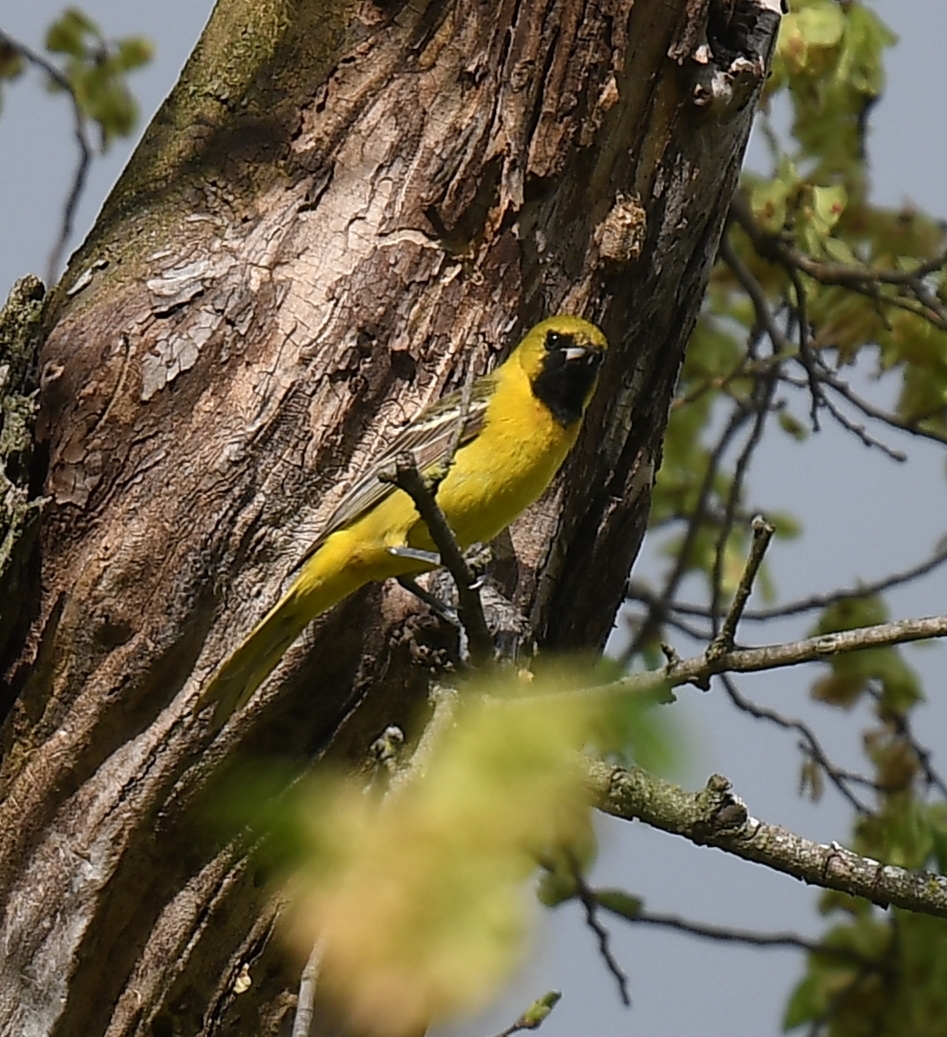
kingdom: Animalia
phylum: Chordata
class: Aves
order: Passeriformes
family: Icteridae
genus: Icterus
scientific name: Icterus spurius
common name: Orchard oriole
